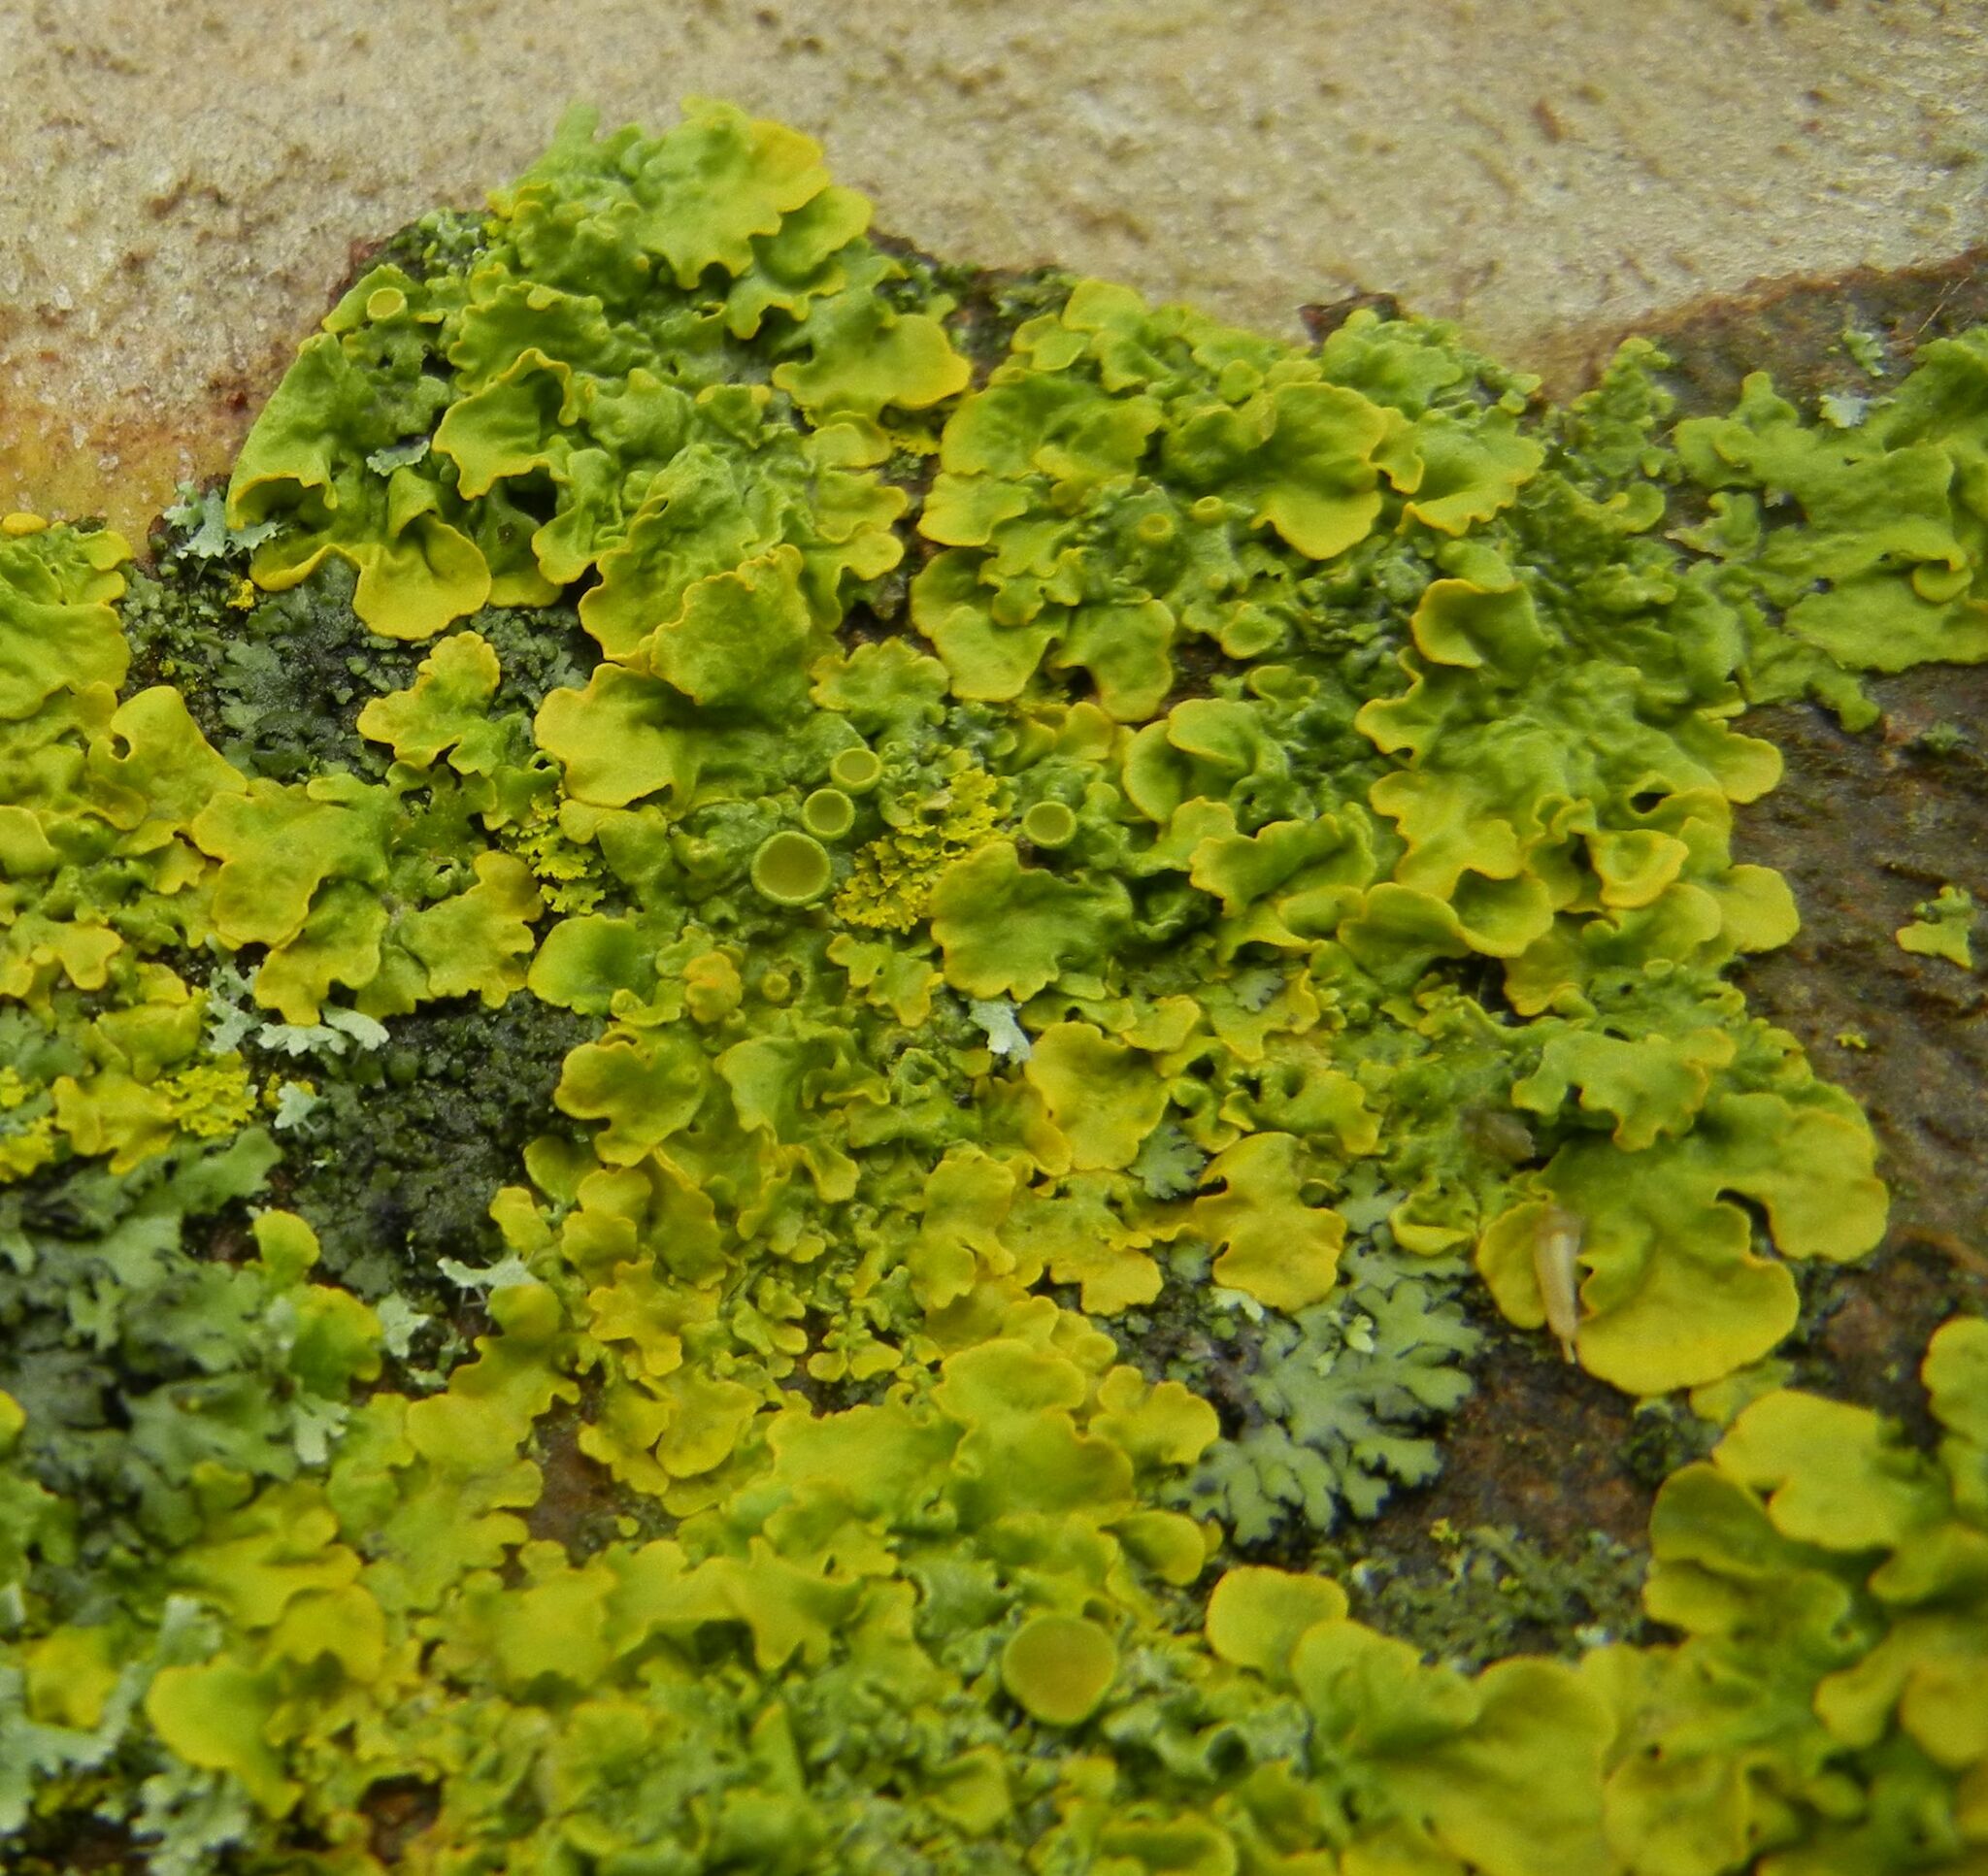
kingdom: Fungi
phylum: Ascomycota
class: Lecanoromycetes
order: Teloschistales
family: Teloschistaceae
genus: Xanthoria
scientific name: Xanthoria parietina
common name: Common orange lichen
